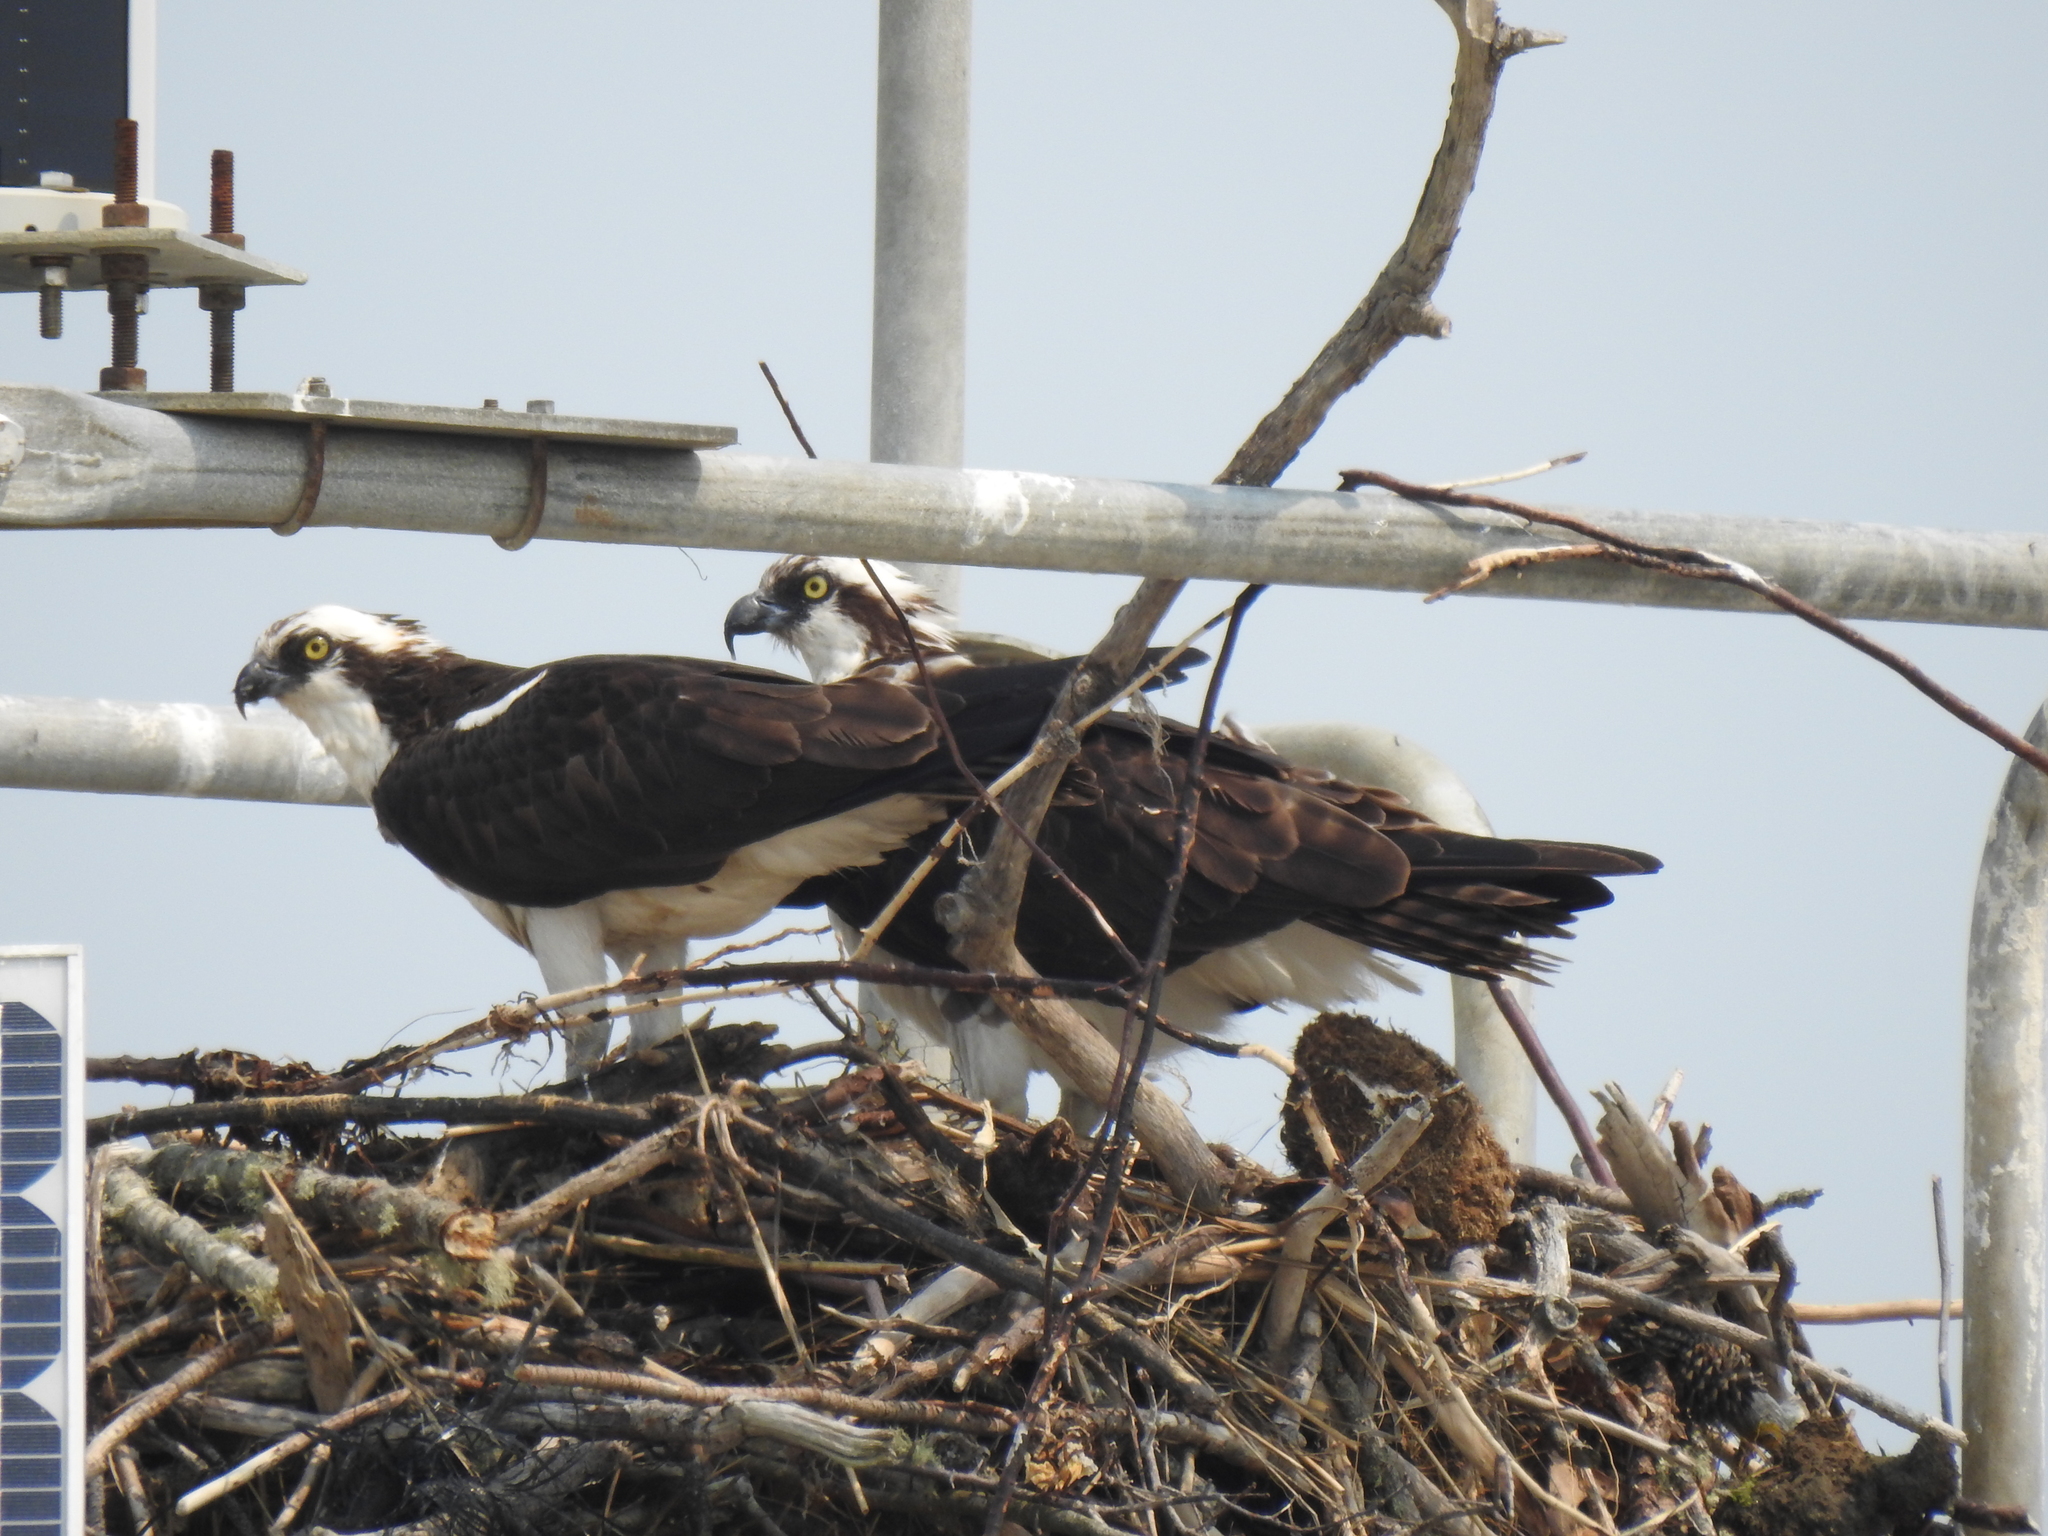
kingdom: Animalia
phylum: Chordata
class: Aves
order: Accipitriformes
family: Pandionidae
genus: Pandion
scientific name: Pandion haliaetus
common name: Osprey
